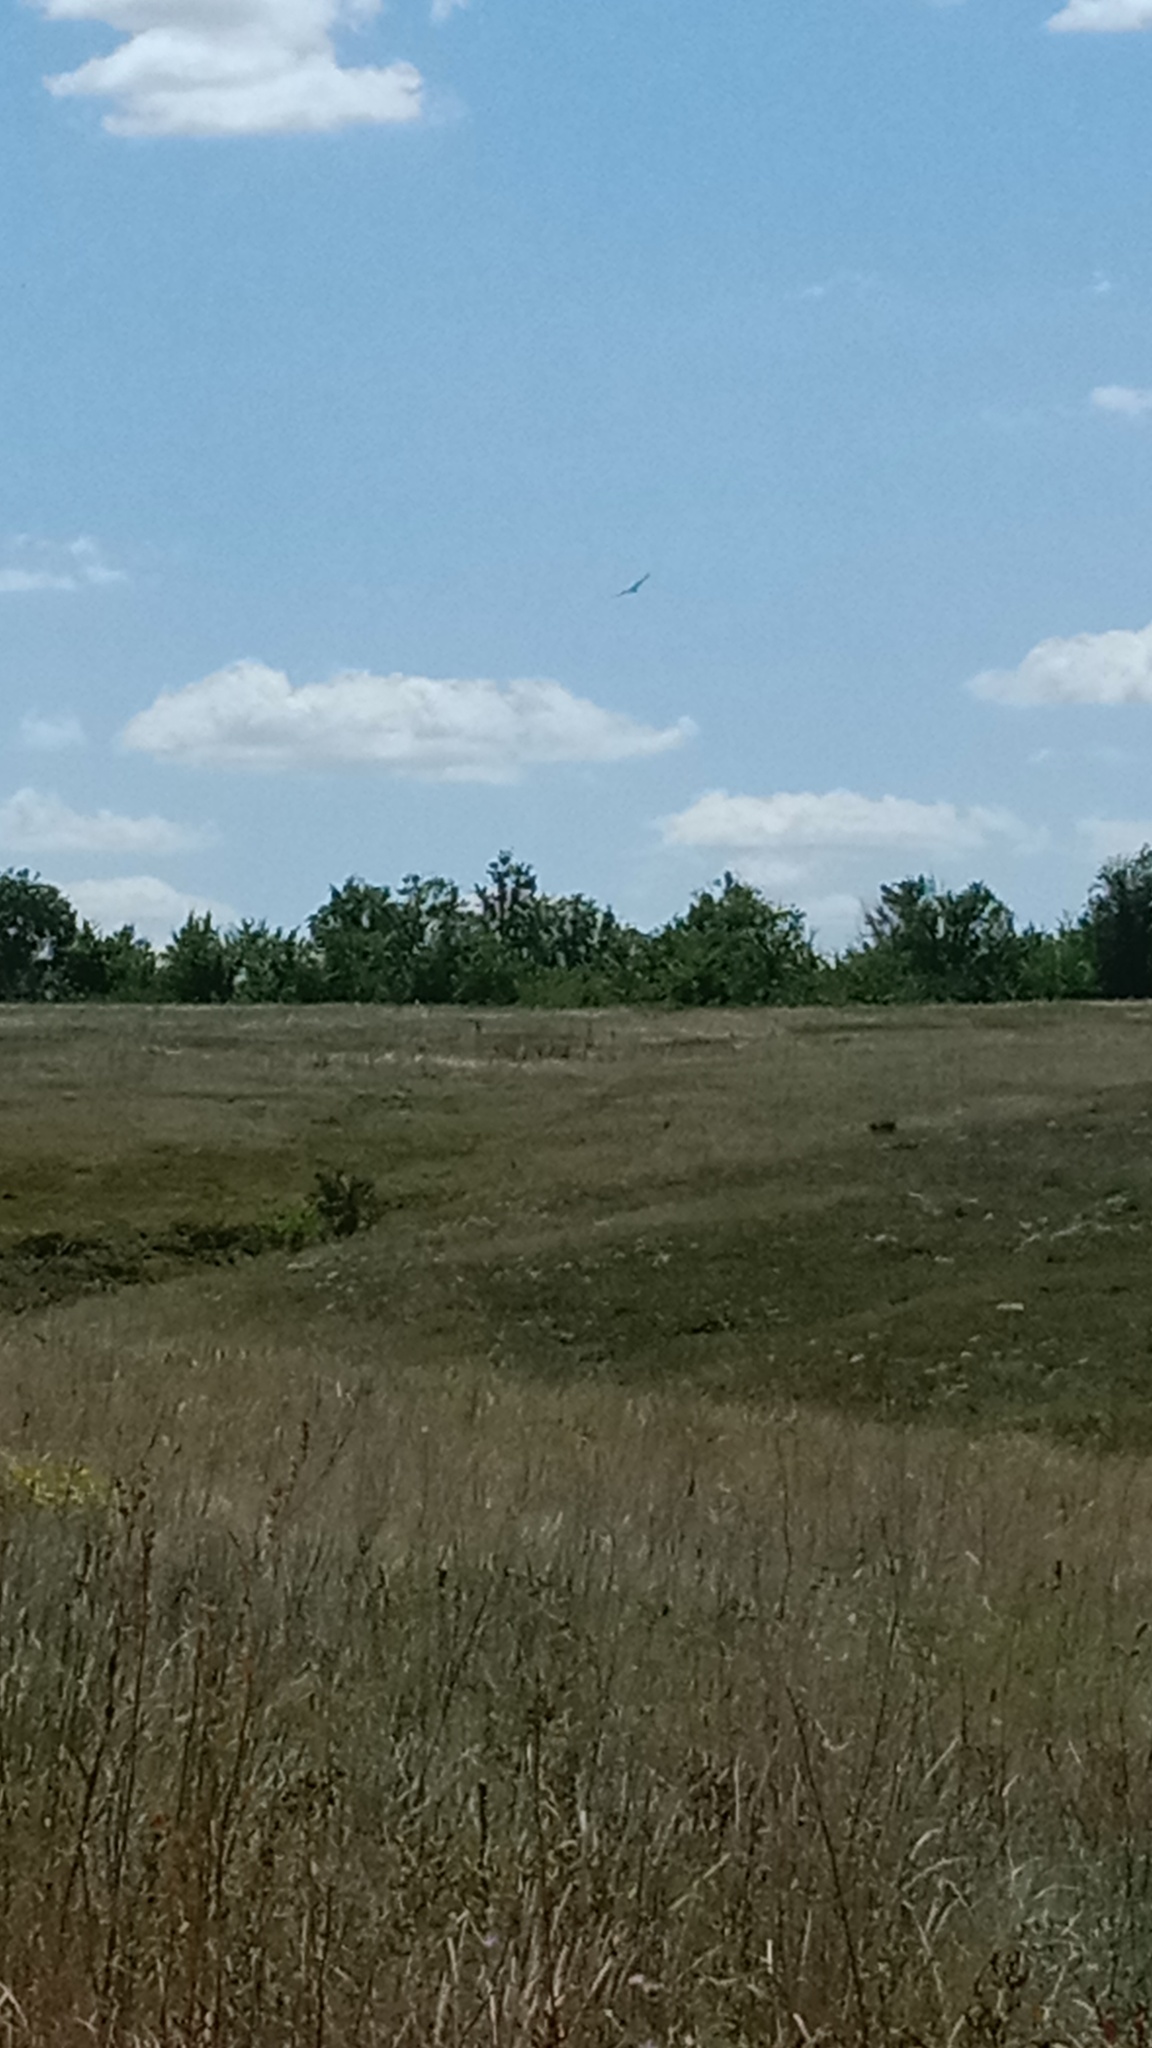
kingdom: Animalia
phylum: Chordata
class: Aves
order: Accipitriformes
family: Accipitridae
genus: Circus
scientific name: Circus aeruginosus
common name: Western marsh harrier
